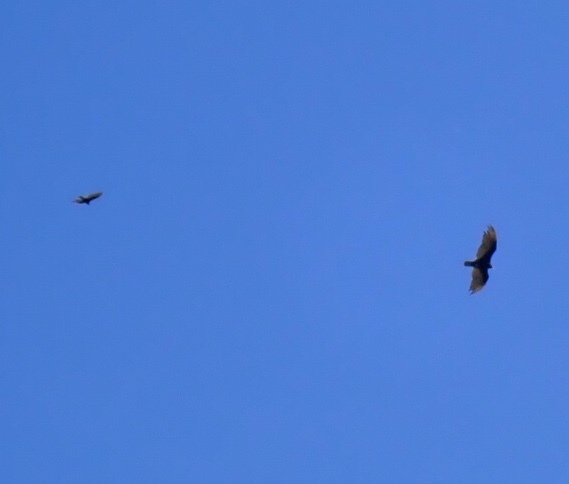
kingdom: Animalia
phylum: Chordata
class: Aves
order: Accipitriformes
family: Cathartidae
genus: Cathartes
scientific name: Cathartes aura
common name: Turkey vulture
